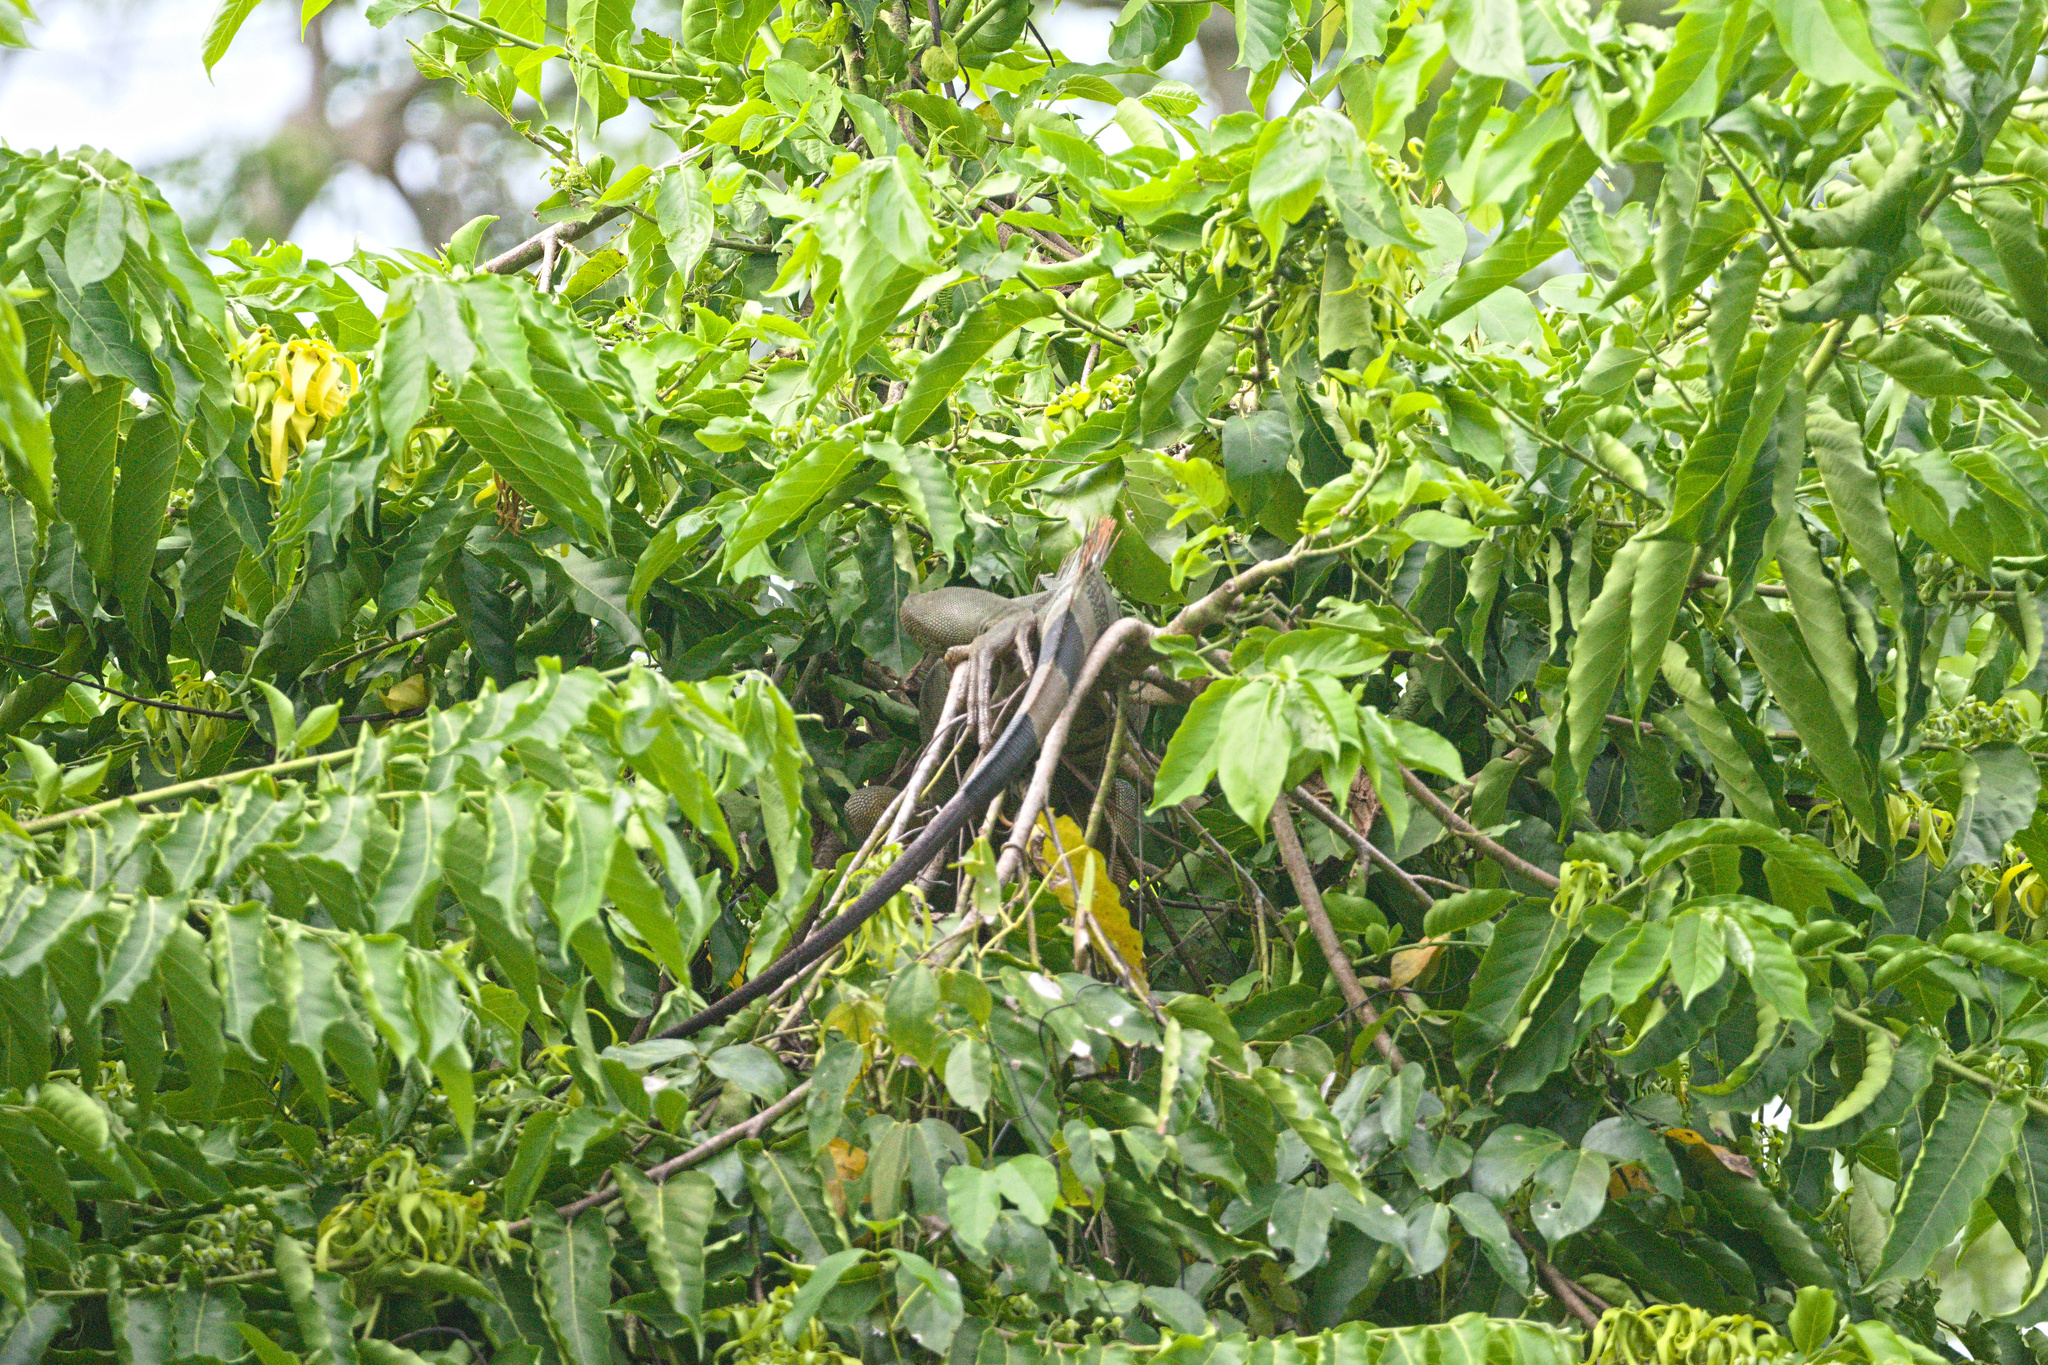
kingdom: Animalia
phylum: Chordata
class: Squamata
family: Iguanidae
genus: Iguana
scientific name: Iguana iguana
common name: Green iguana
